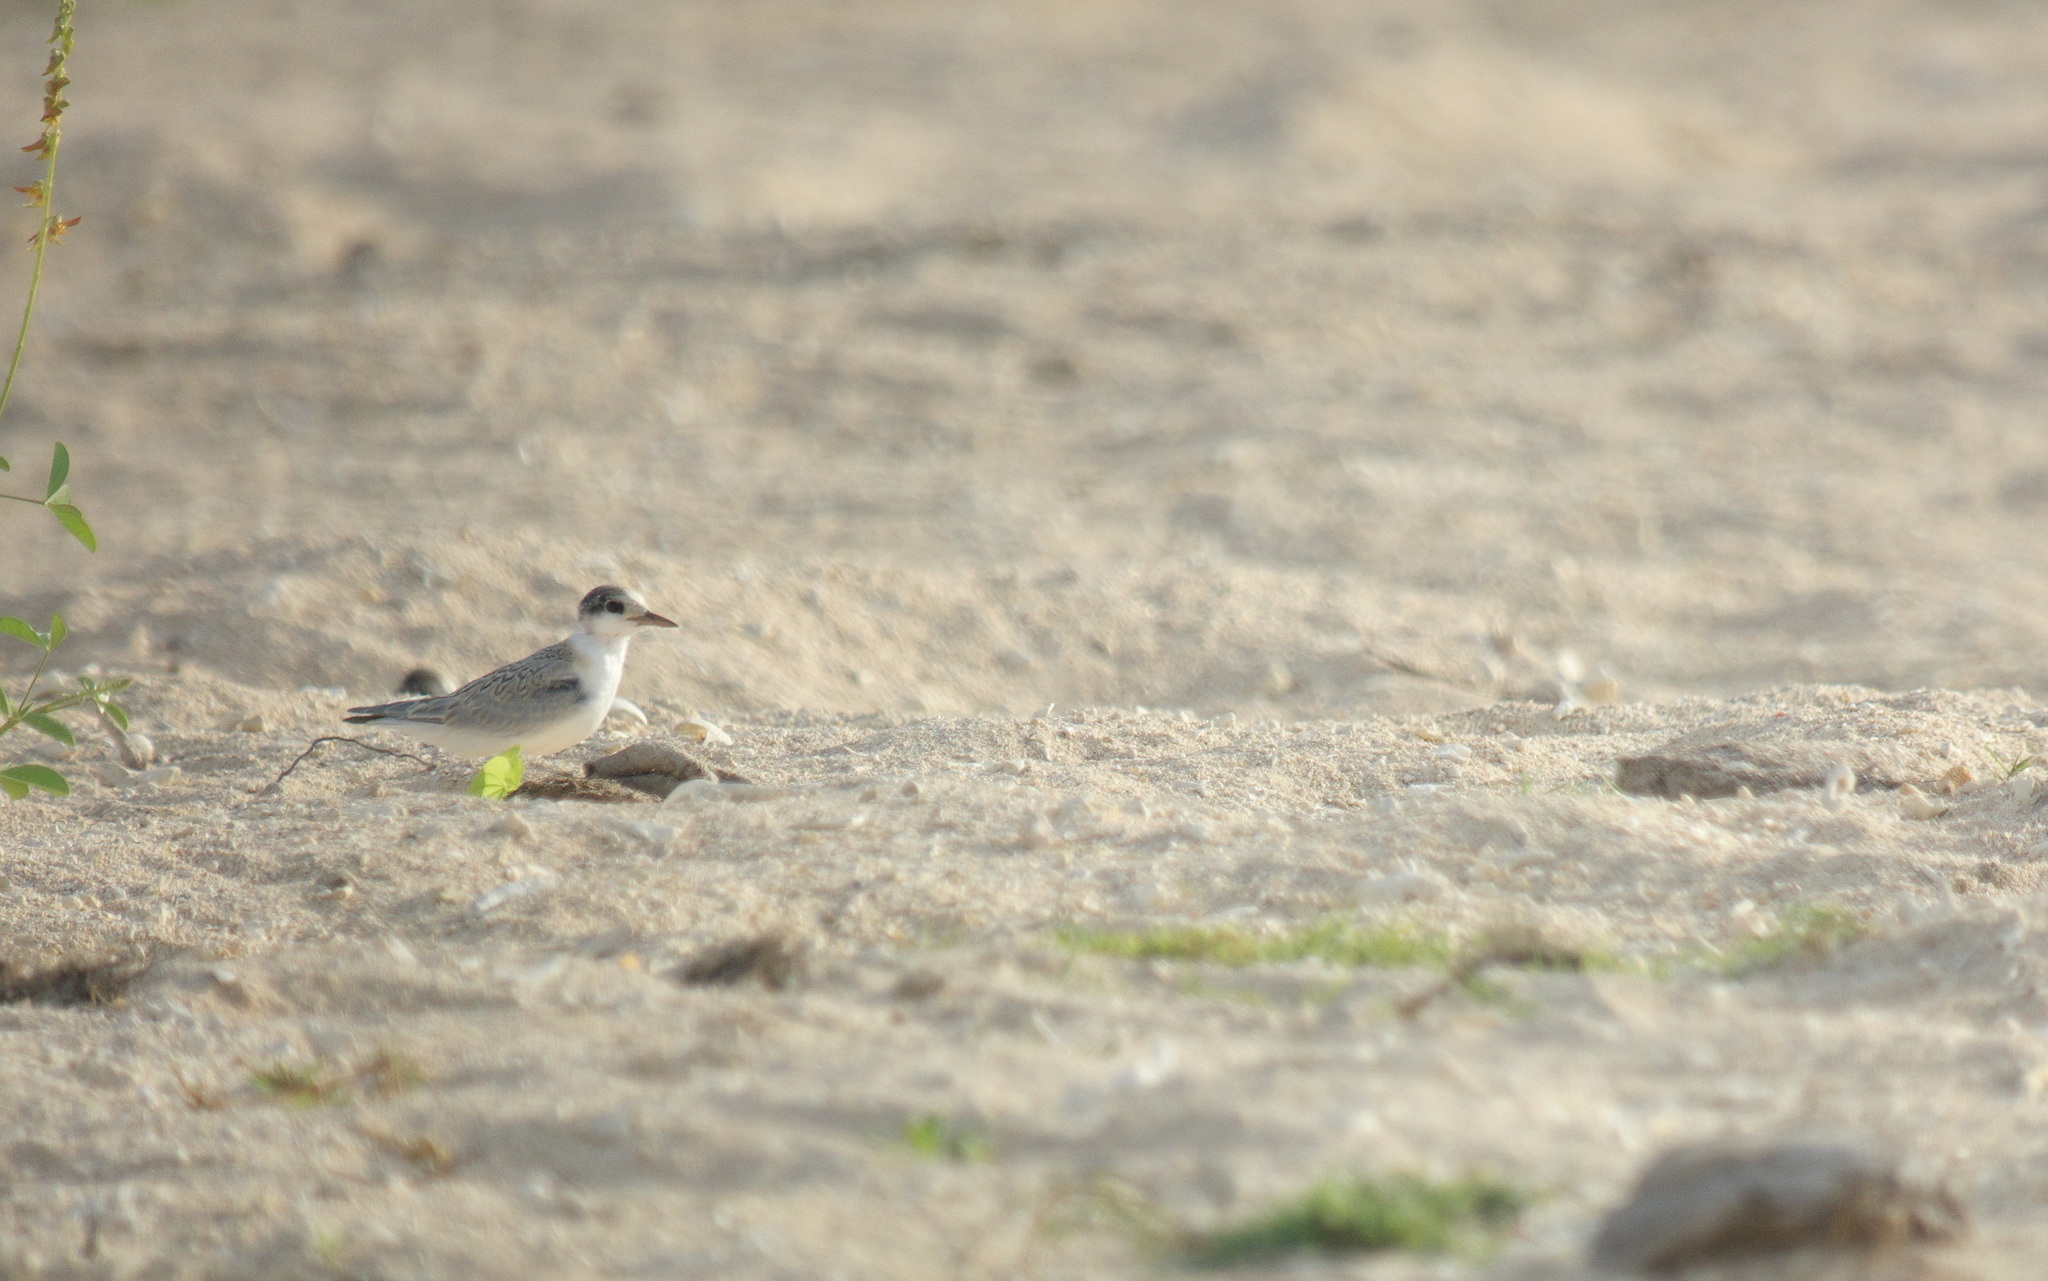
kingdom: Animalia
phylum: Chordata
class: Aves
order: Charadriiformes
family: Laridae
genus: Sternula
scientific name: Sternula albifrons
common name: Little tern
